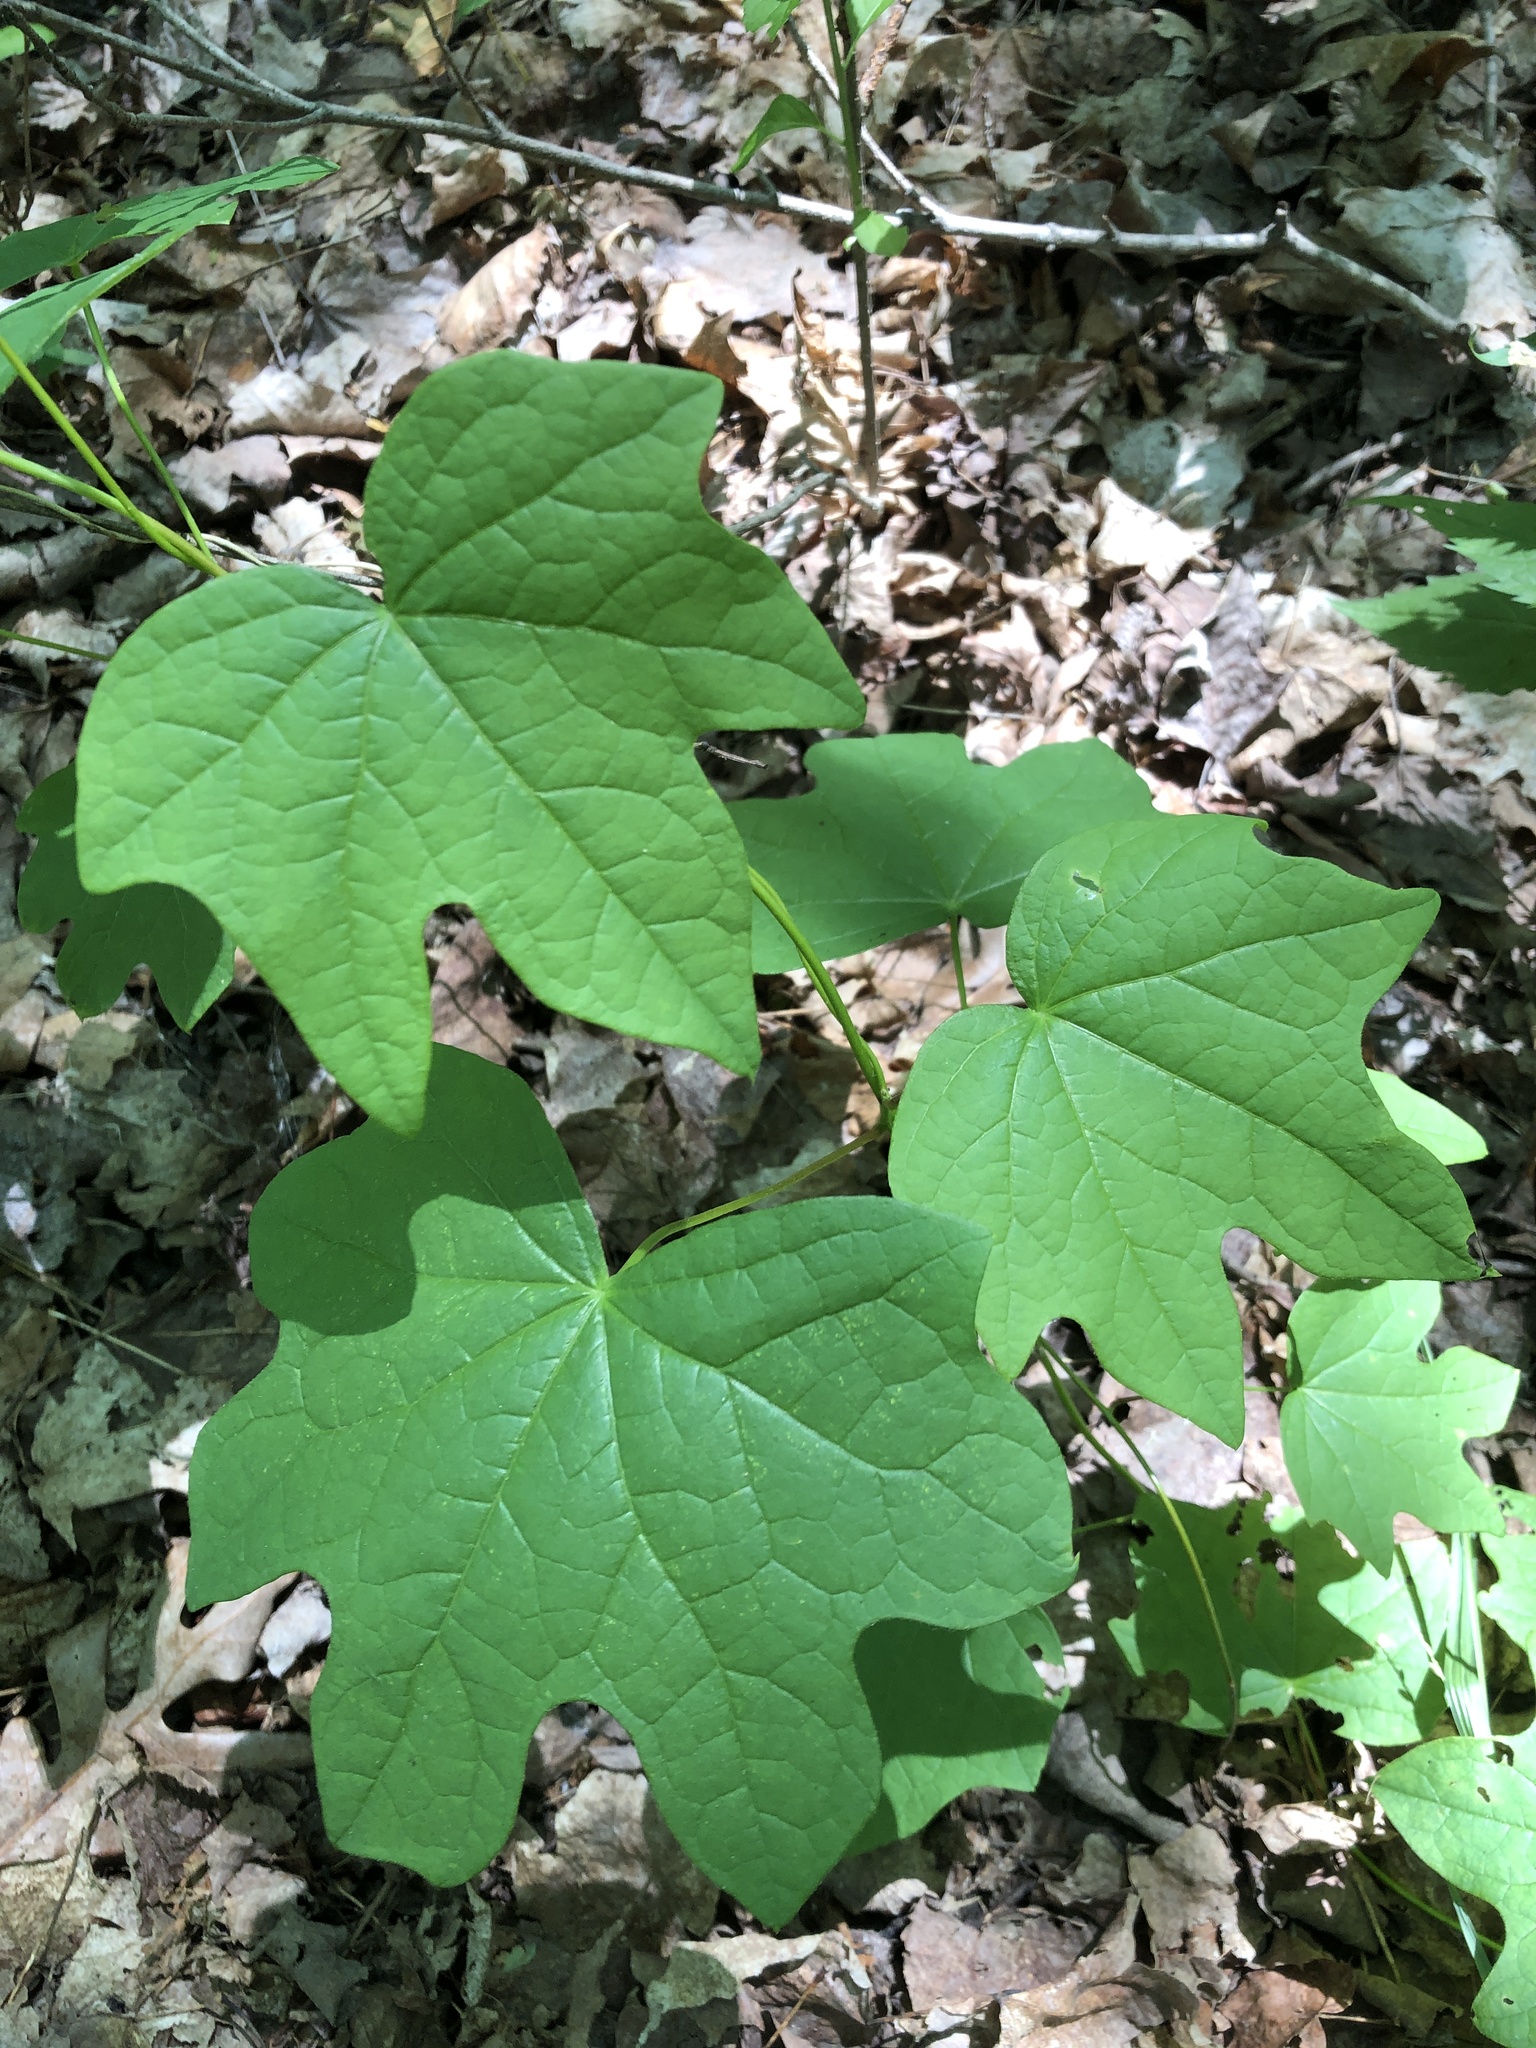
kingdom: Plantae
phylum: Tracheophyta
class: Magnoliopsida
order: Ranunculales
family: Menispermaceae
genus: Menispermum
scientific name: Menispermum canadense
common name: Moonseed
